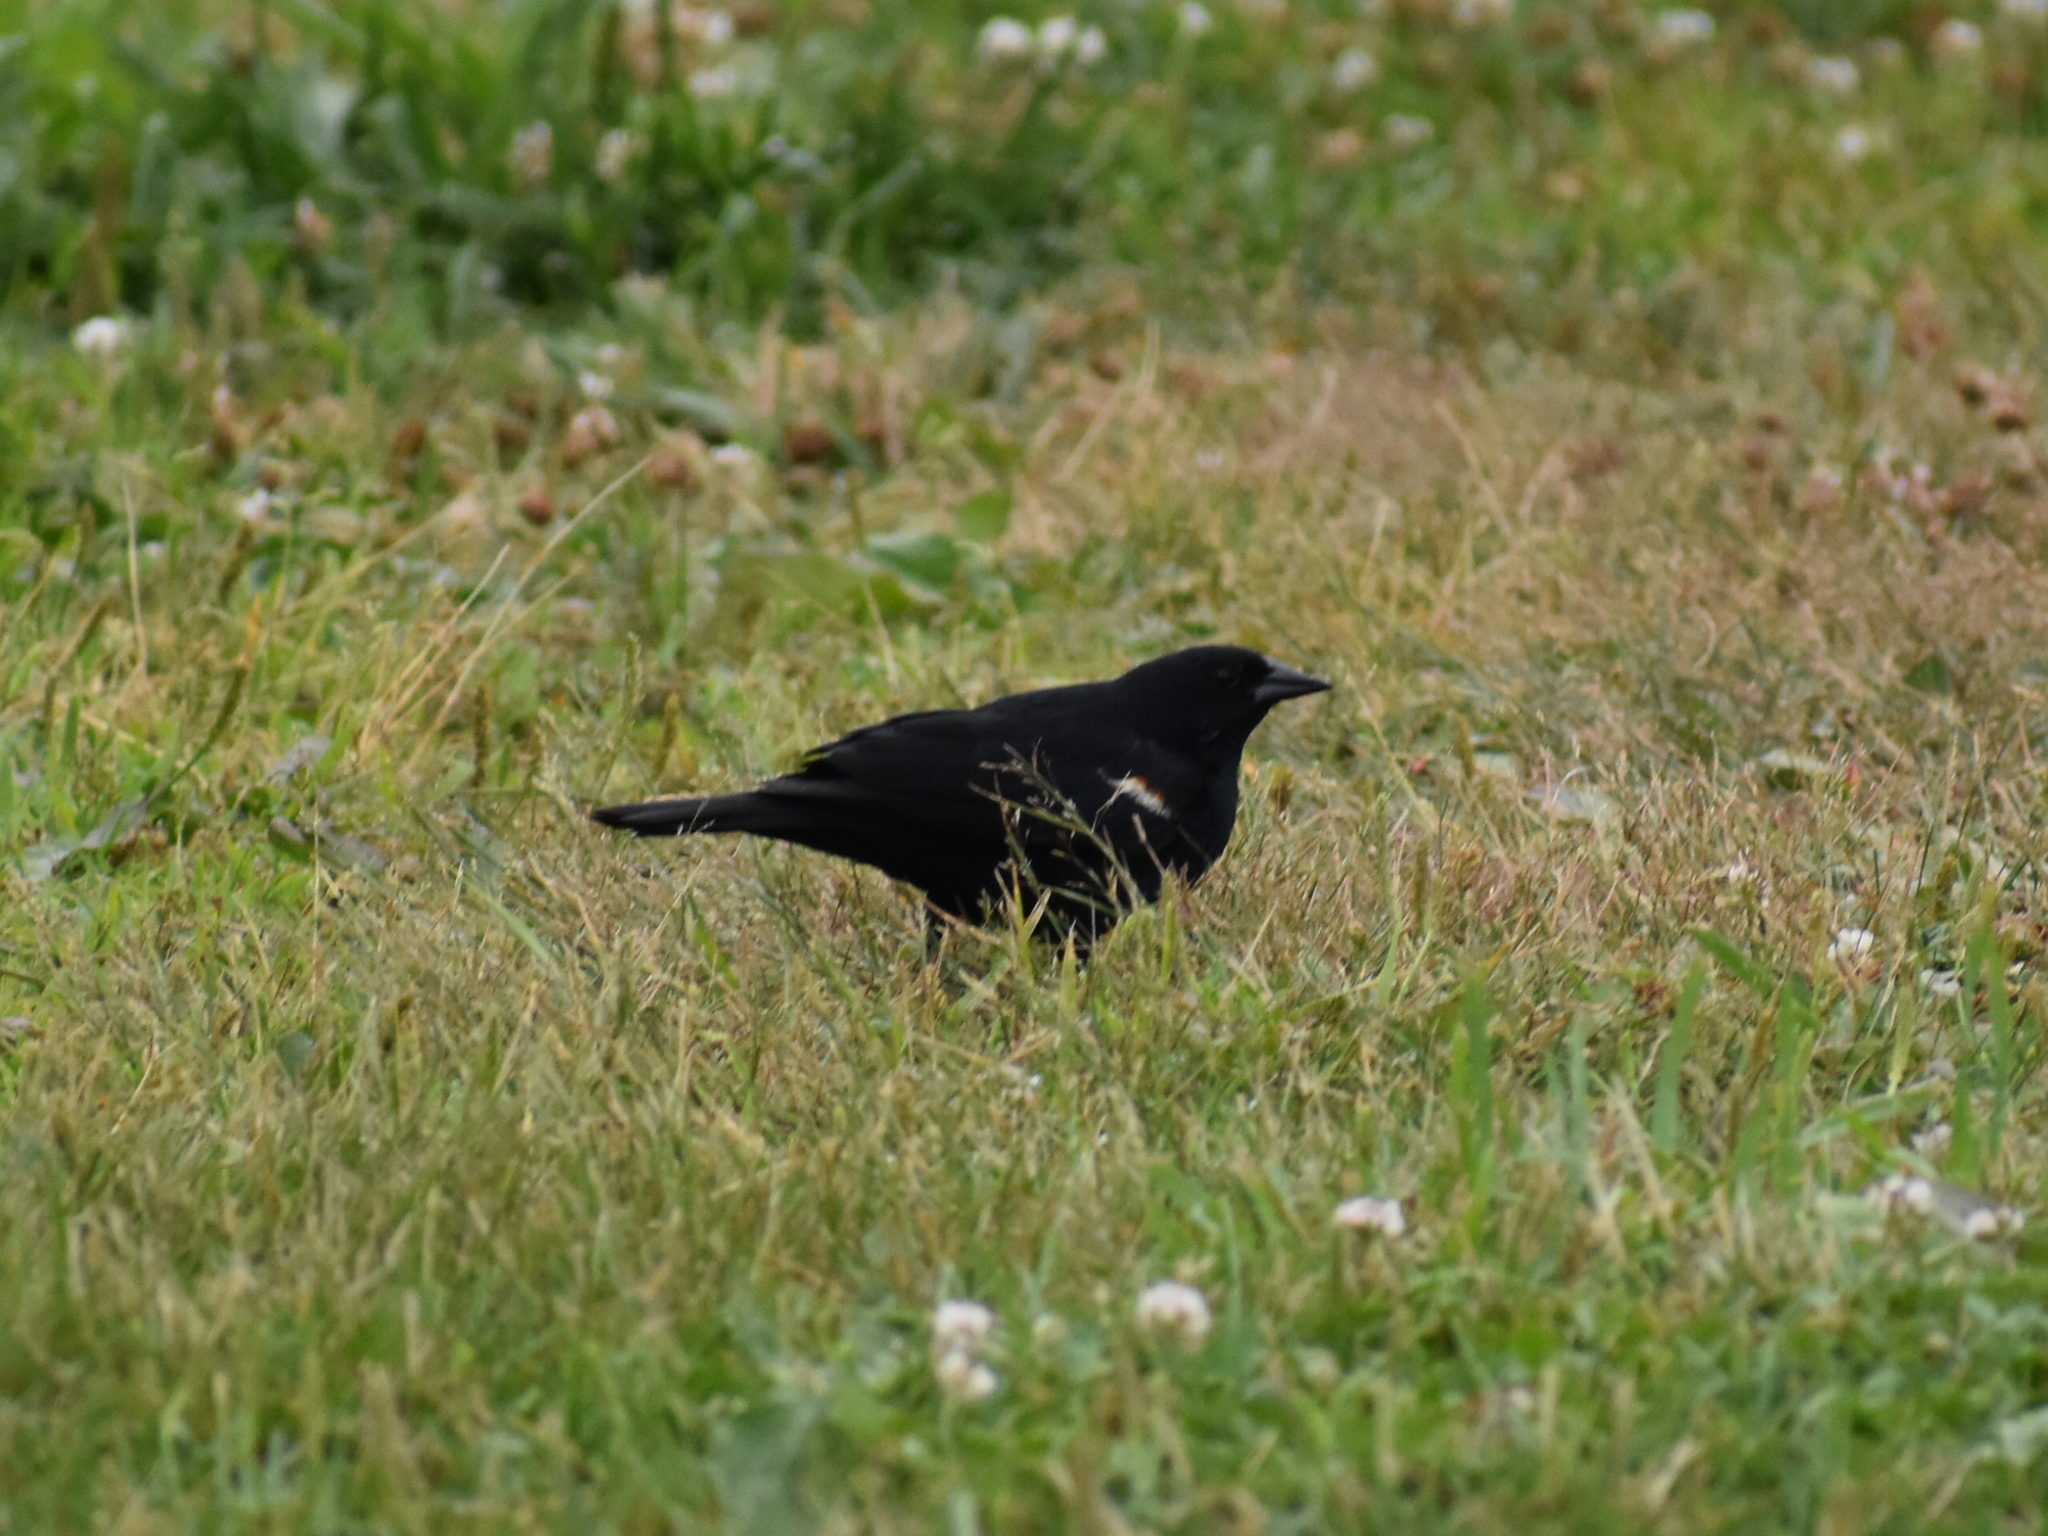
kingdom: Animalia
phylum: Chordata
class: Aves
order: Passeriformes
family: Icteridae
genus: Agelaius
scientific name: Agelaius phoeniceus
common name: Red-winged blackbird
